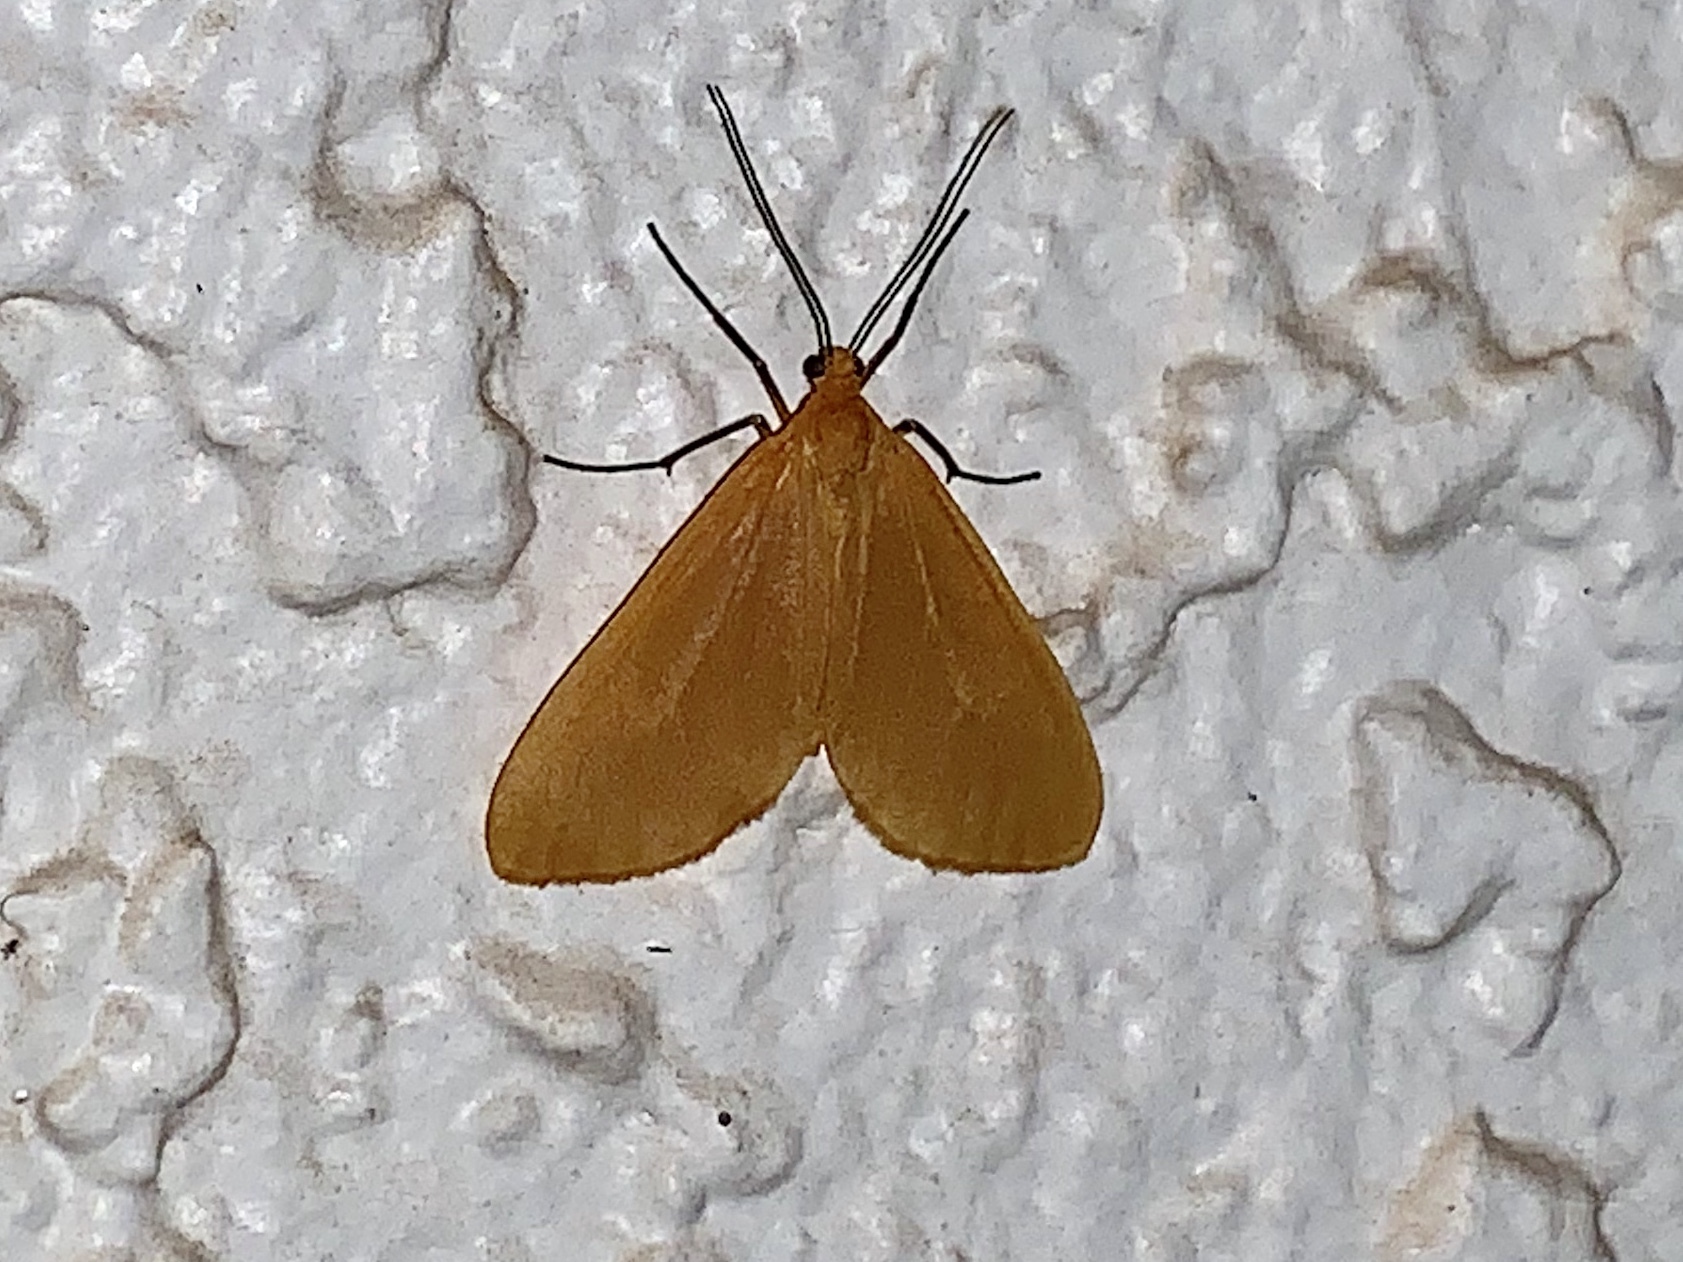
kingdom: Animalia
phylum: Arthropoda
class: Insecta
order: Lepidoptera
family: Geometridae
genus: Eubaphe
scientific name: Eubaphe unicolor
